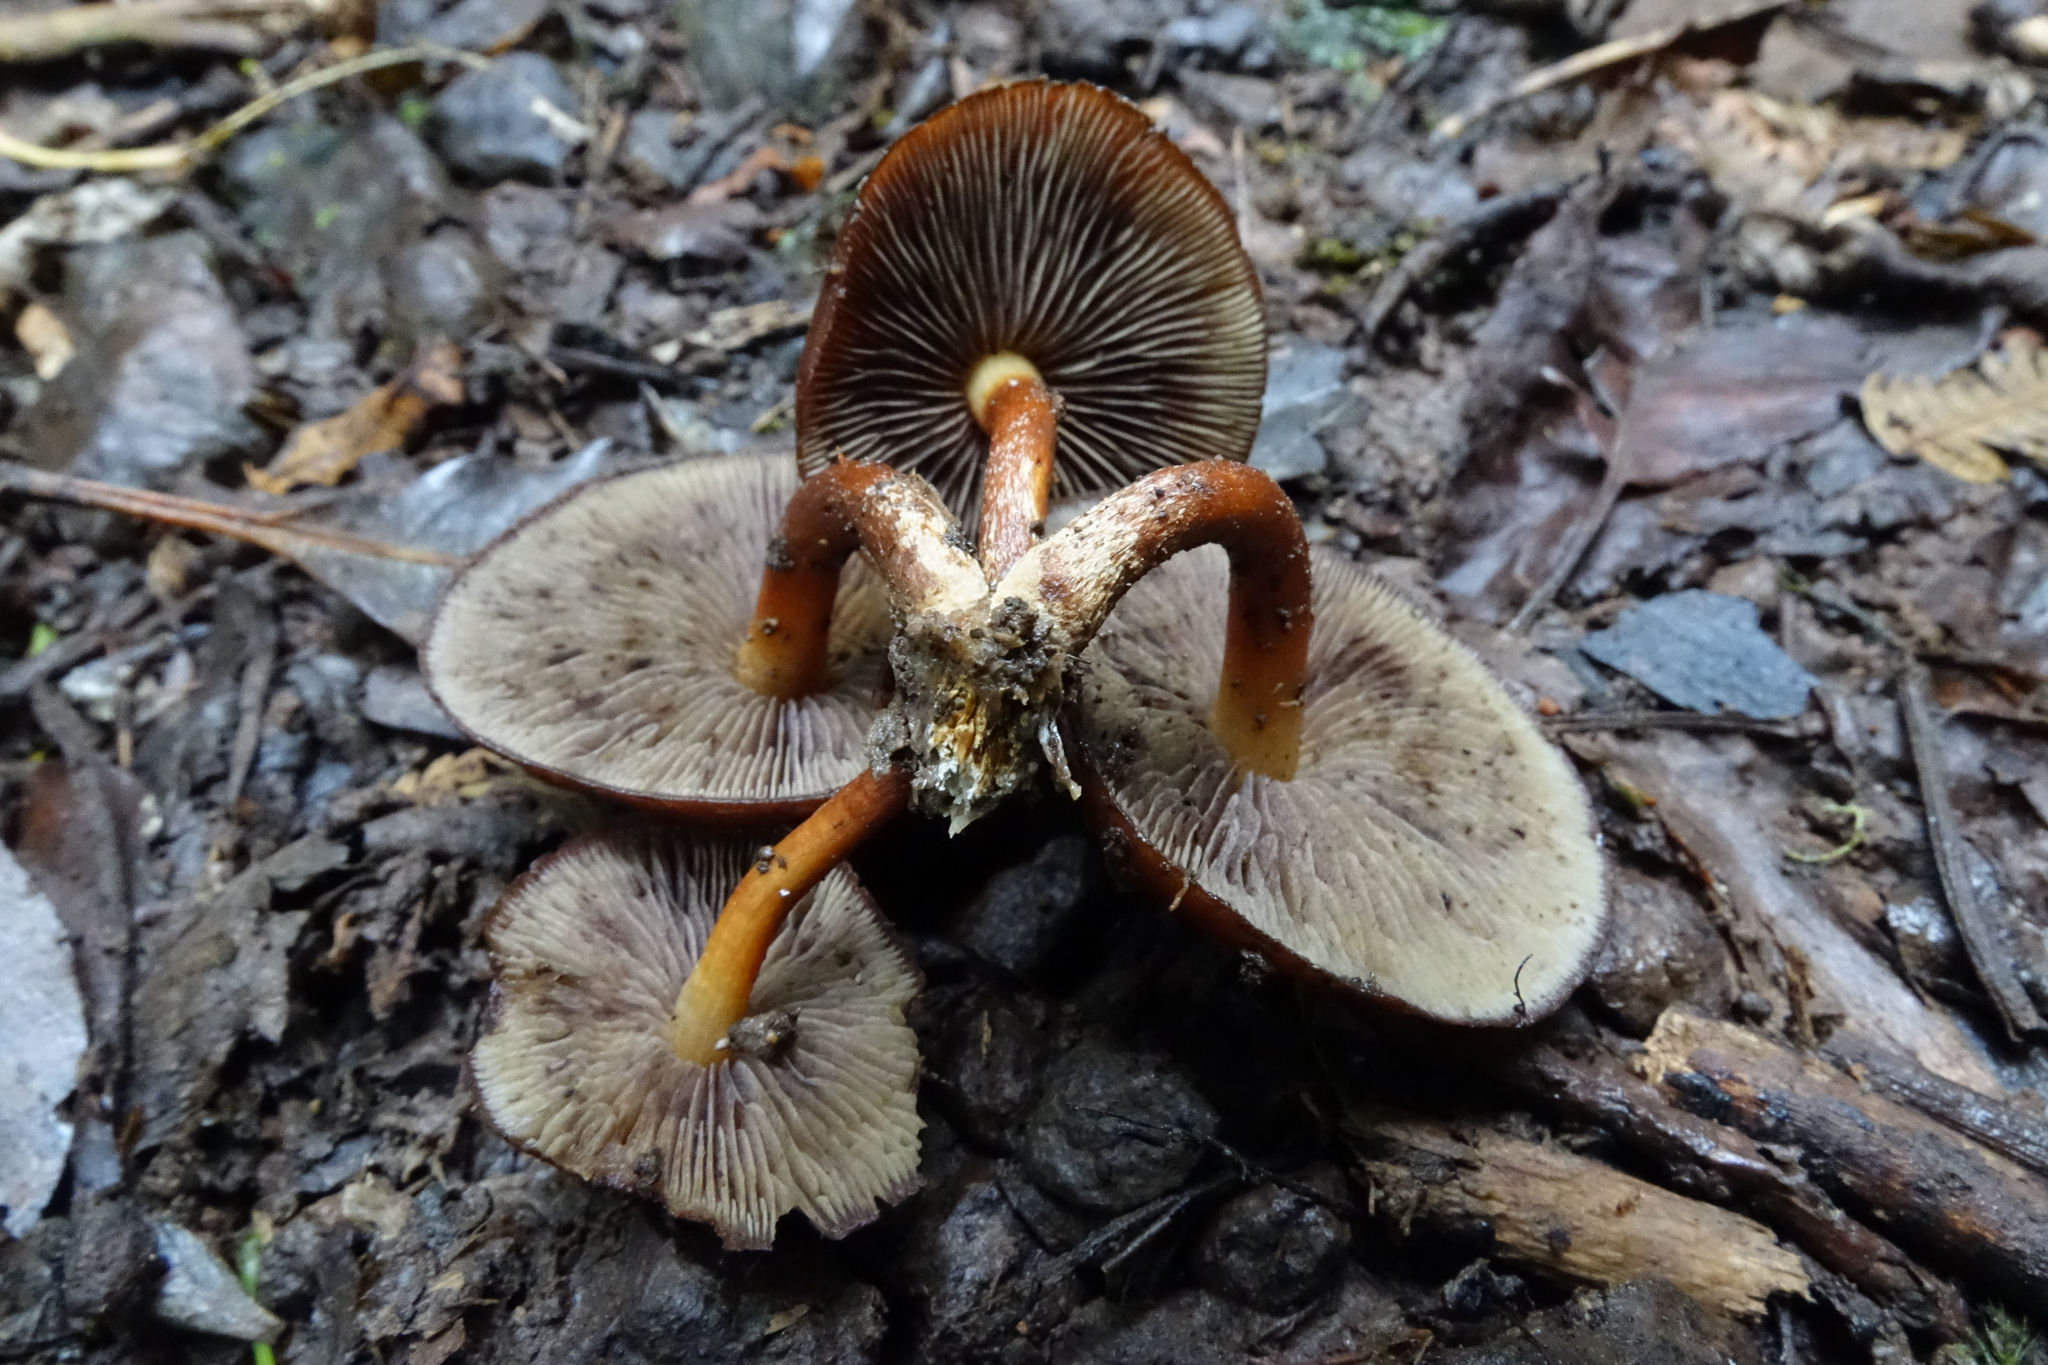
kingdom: Fungi
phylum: Basidiomycota
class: Agaricomycetes
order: Agaricales
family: Strophariaceae
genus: Pholiota
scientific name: Pholiota multicingulata
